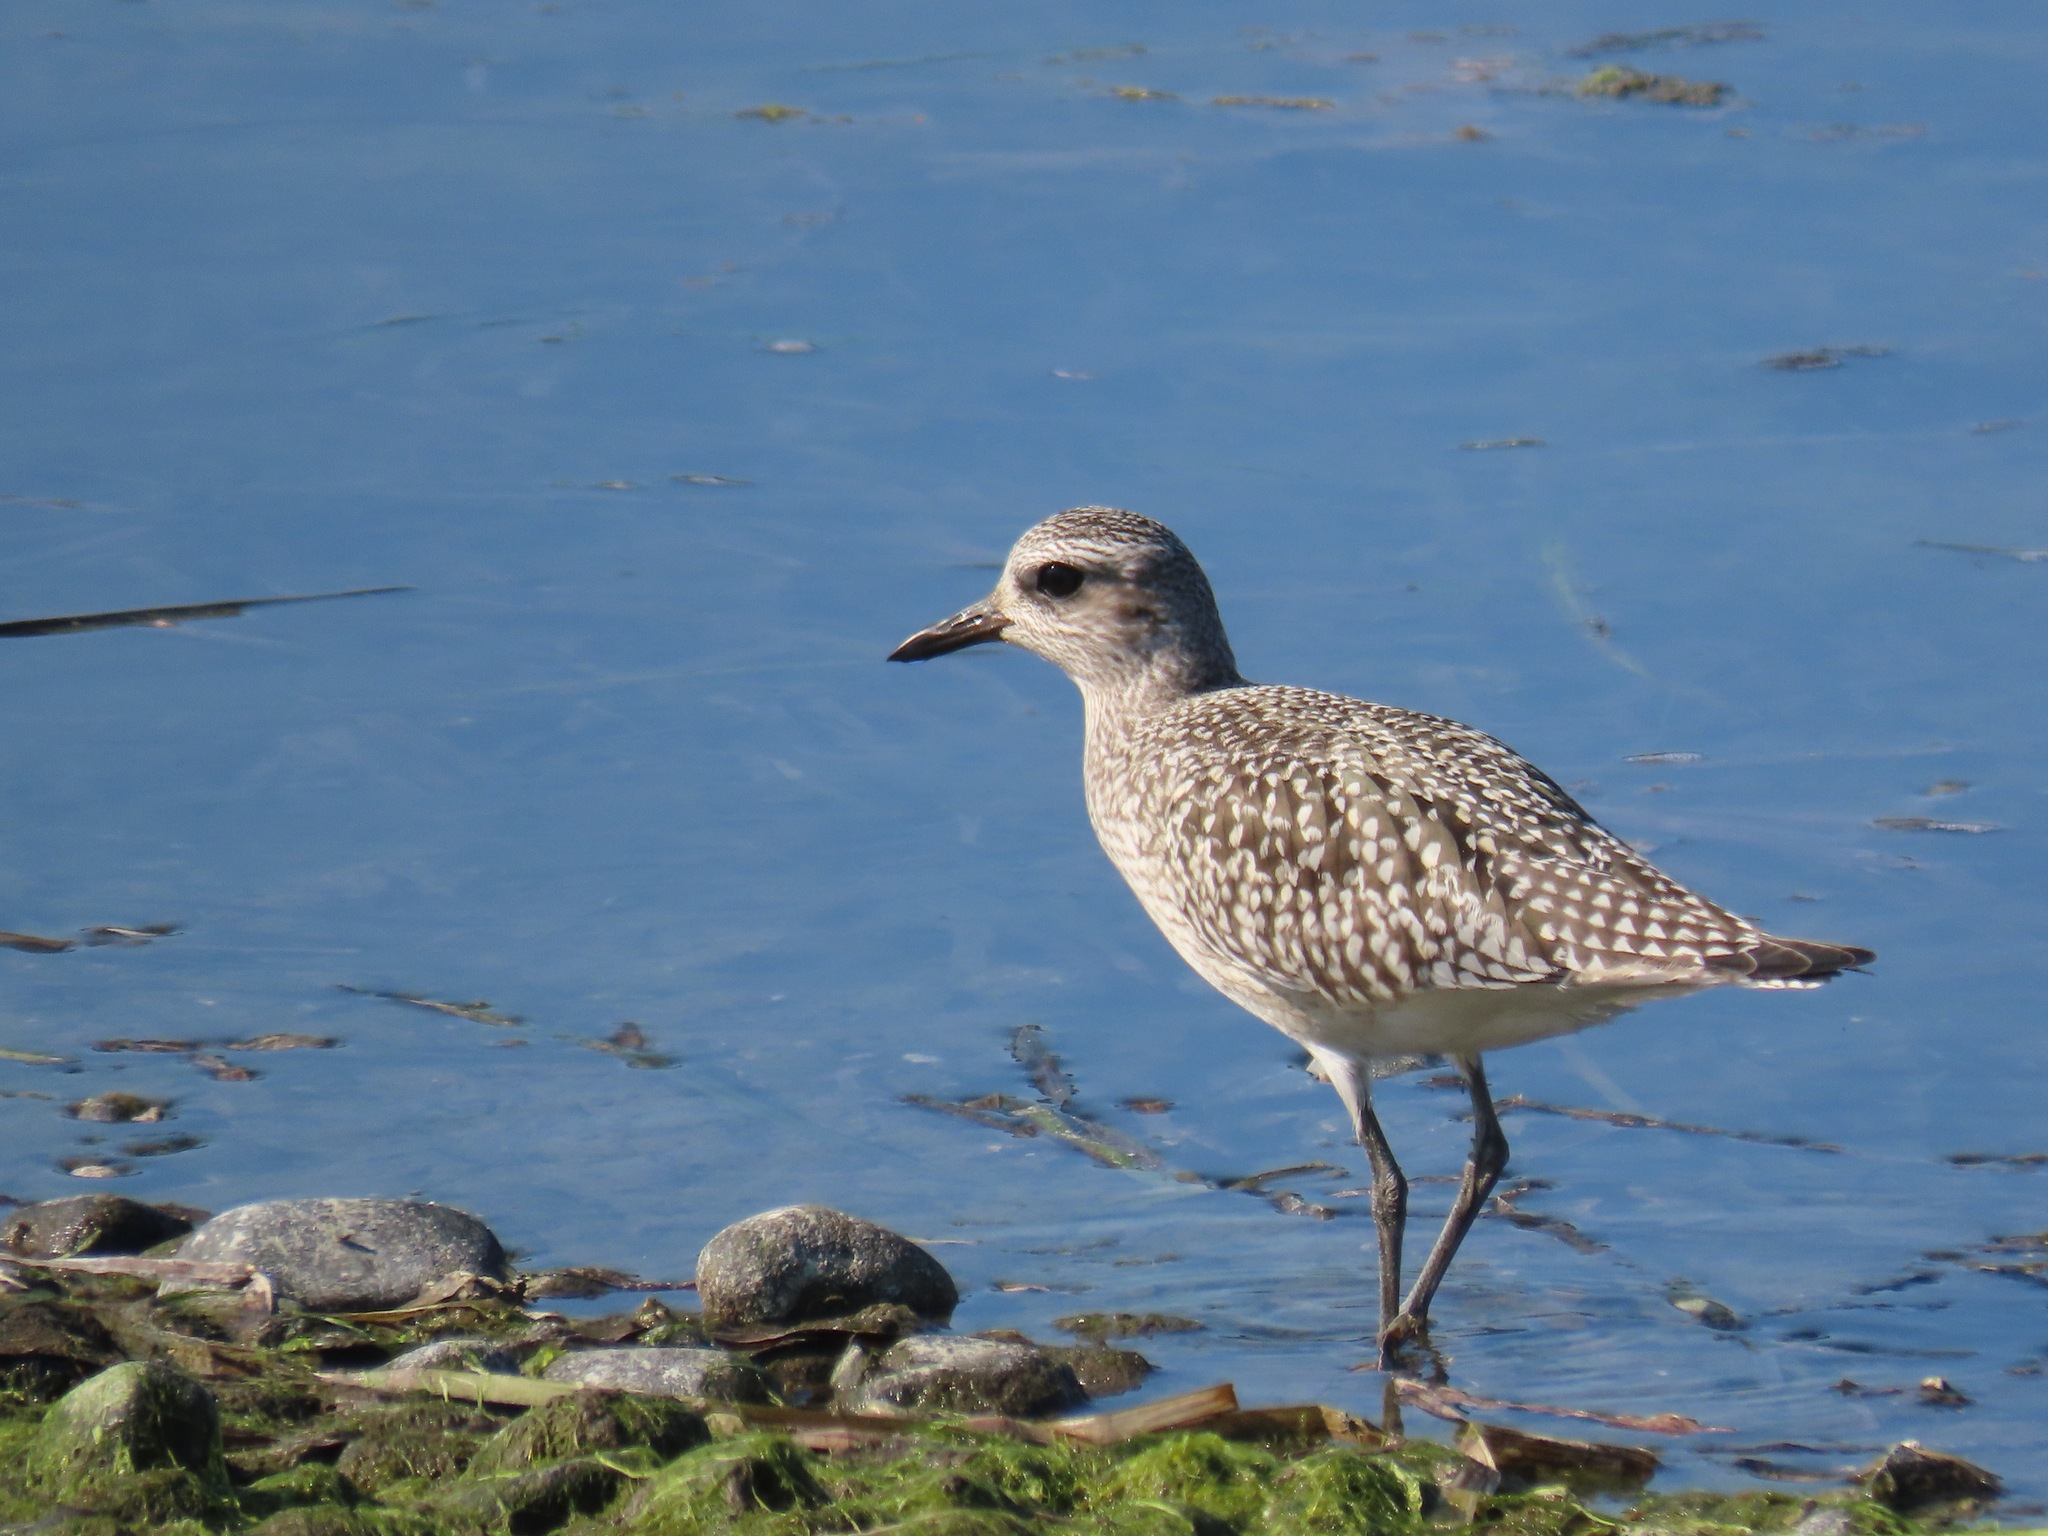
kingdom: Animalia
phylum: Chordata
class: Aves
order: Charadriiformes
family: Charadriidae
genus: Pluvialis
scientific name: Pluvialis squatarola
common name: Grey plover
